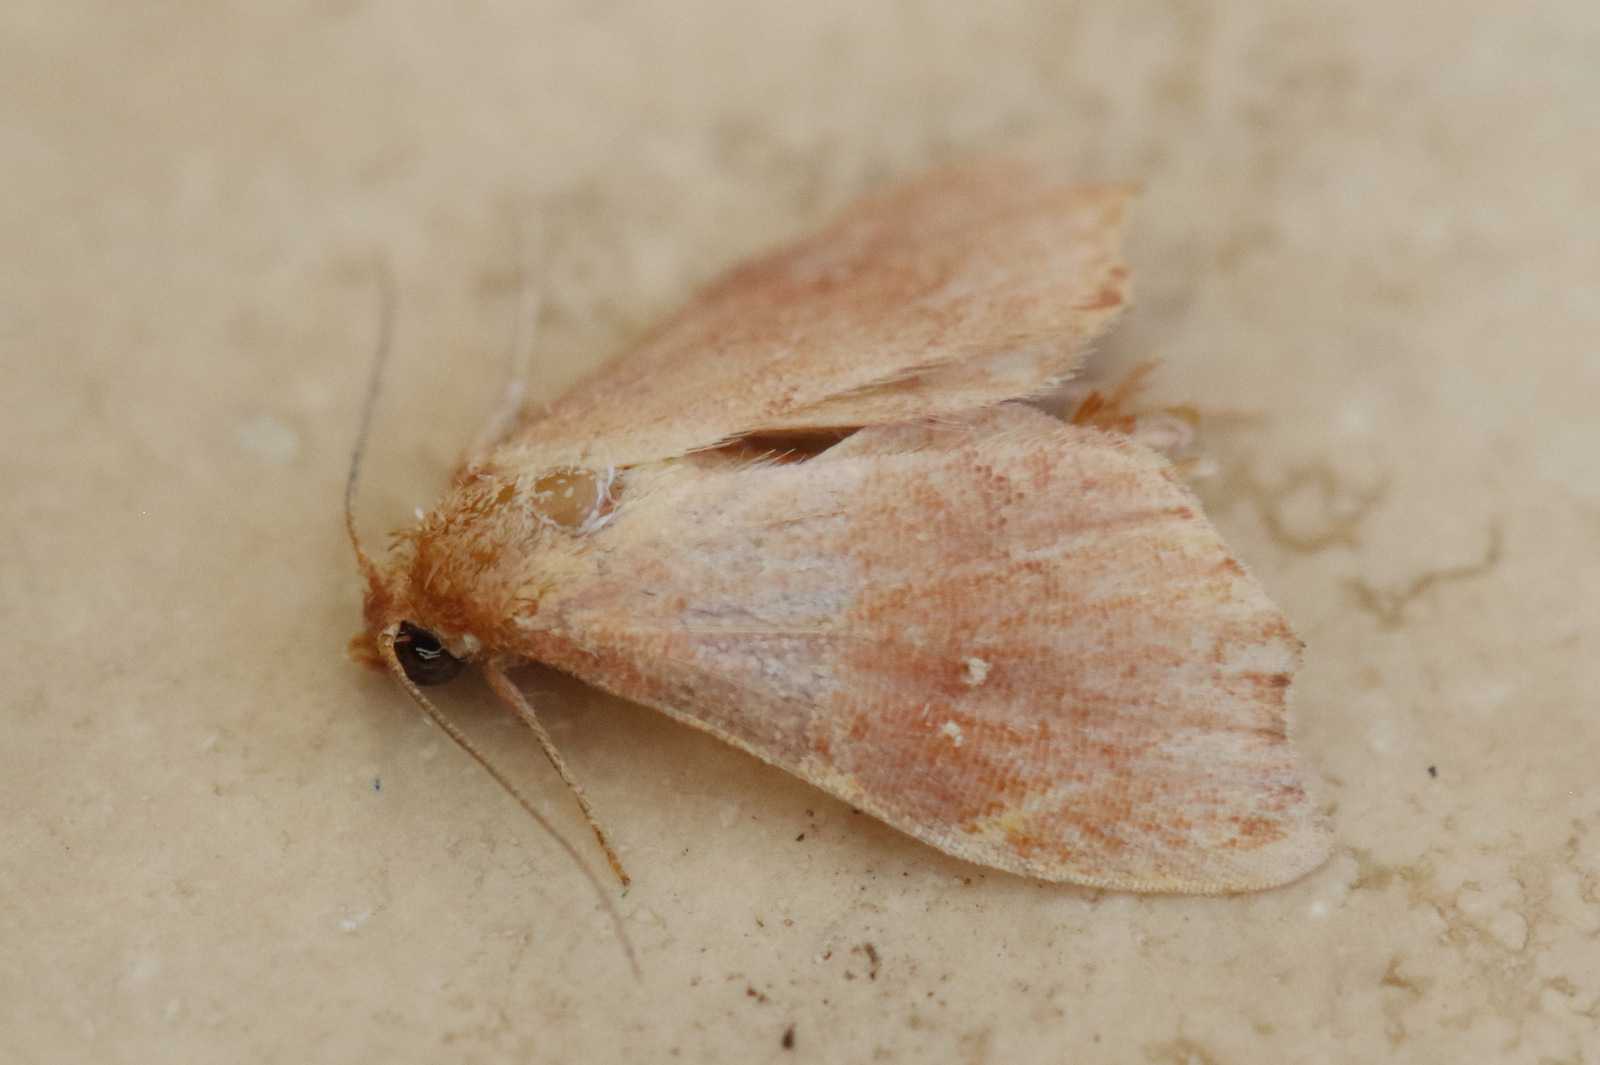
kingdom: Animalia
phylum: Arthropoda
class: Insecta
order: Lepidoptera
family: Noctuidae
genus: Heterorta
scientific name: Heterorta plutonis
